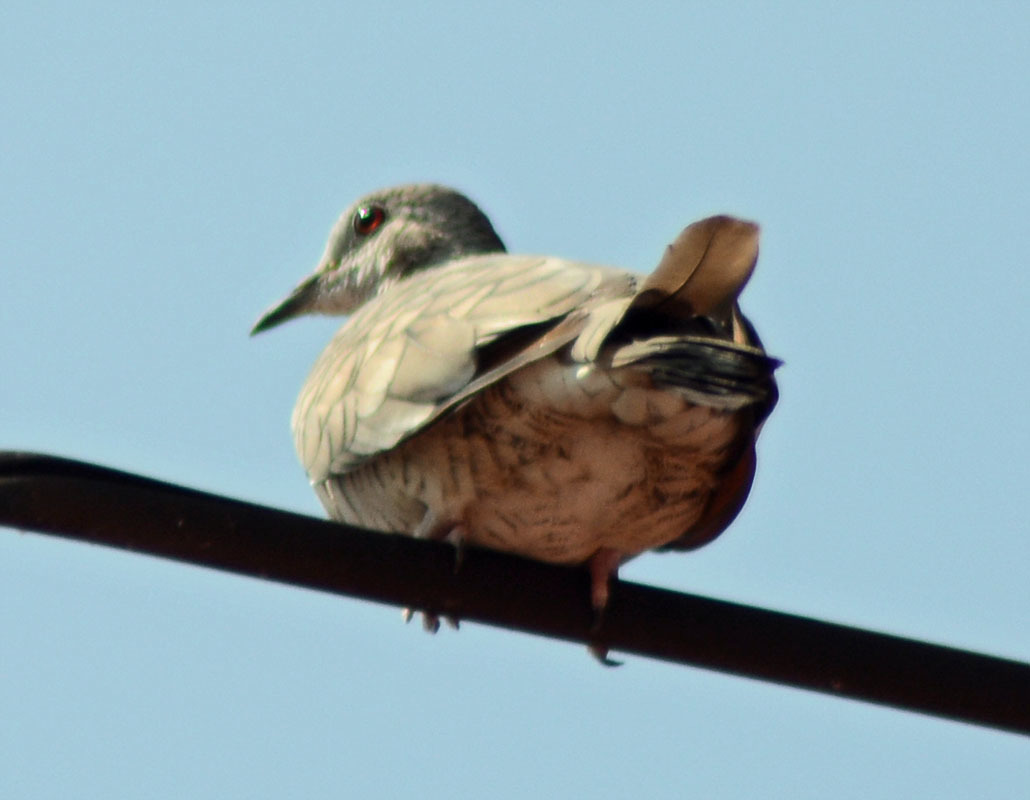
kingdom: Animalia
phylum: Chordata
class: Aves
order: Columbiformes
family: Columbidae
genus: Columbina
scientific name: Columbina inca
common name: Inca dove
